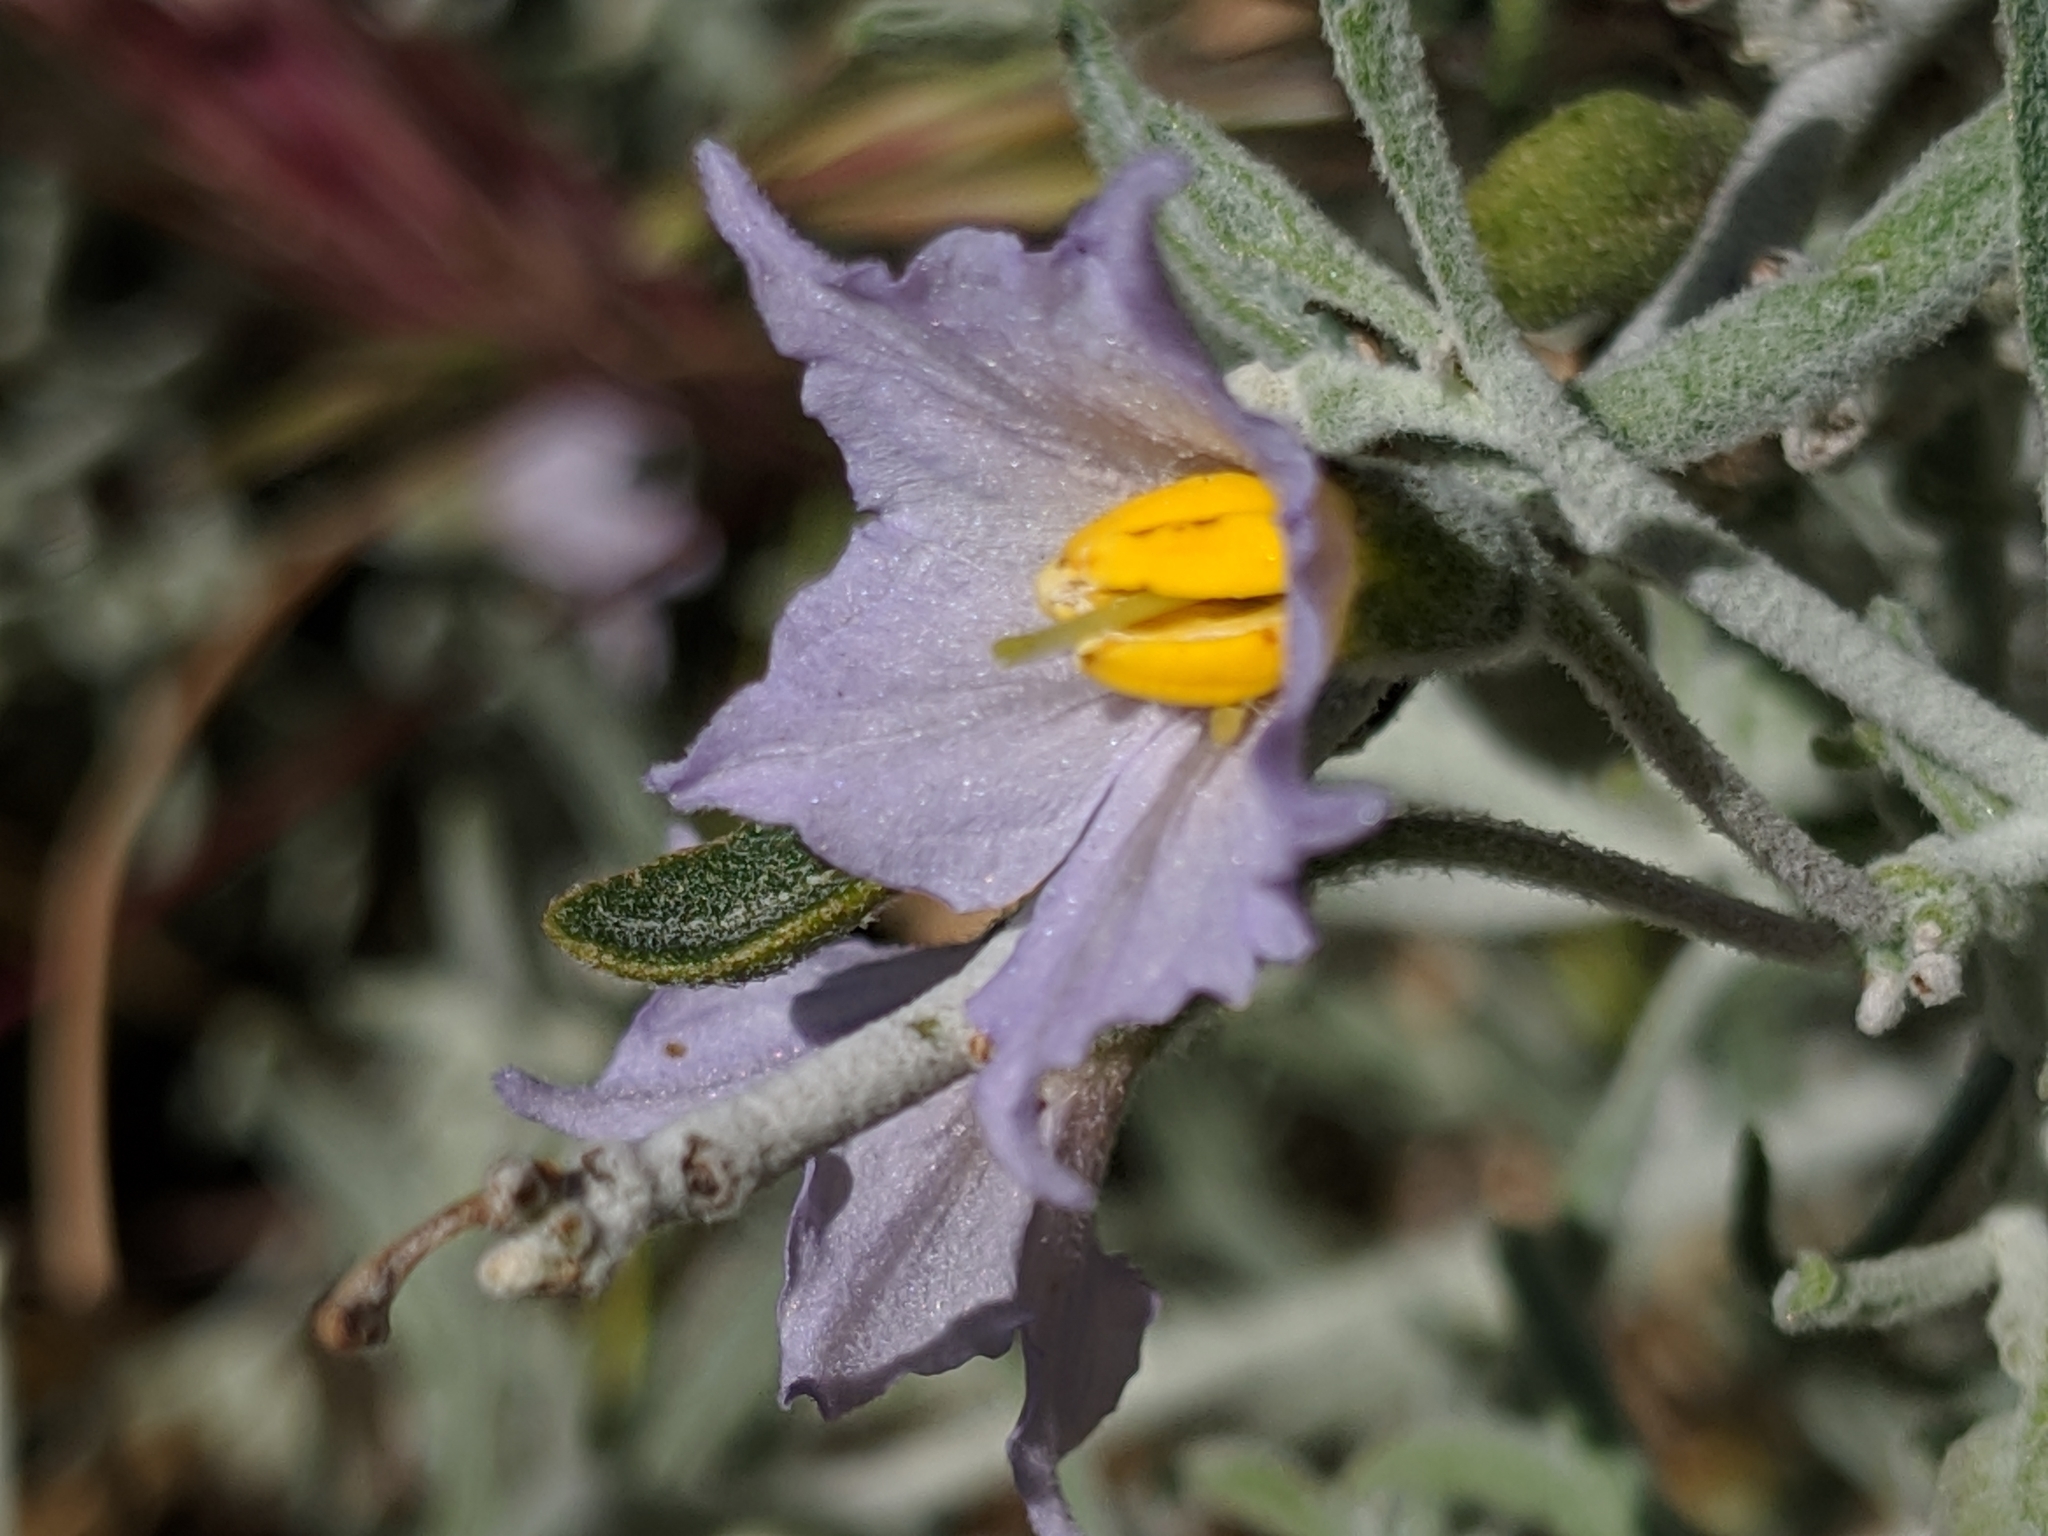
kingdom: Plantae
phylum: Tracheophyta
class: Magnoliopsida
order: Solanales
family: Solanaceae
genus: Solanum
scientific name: Solanum umbelliferum
